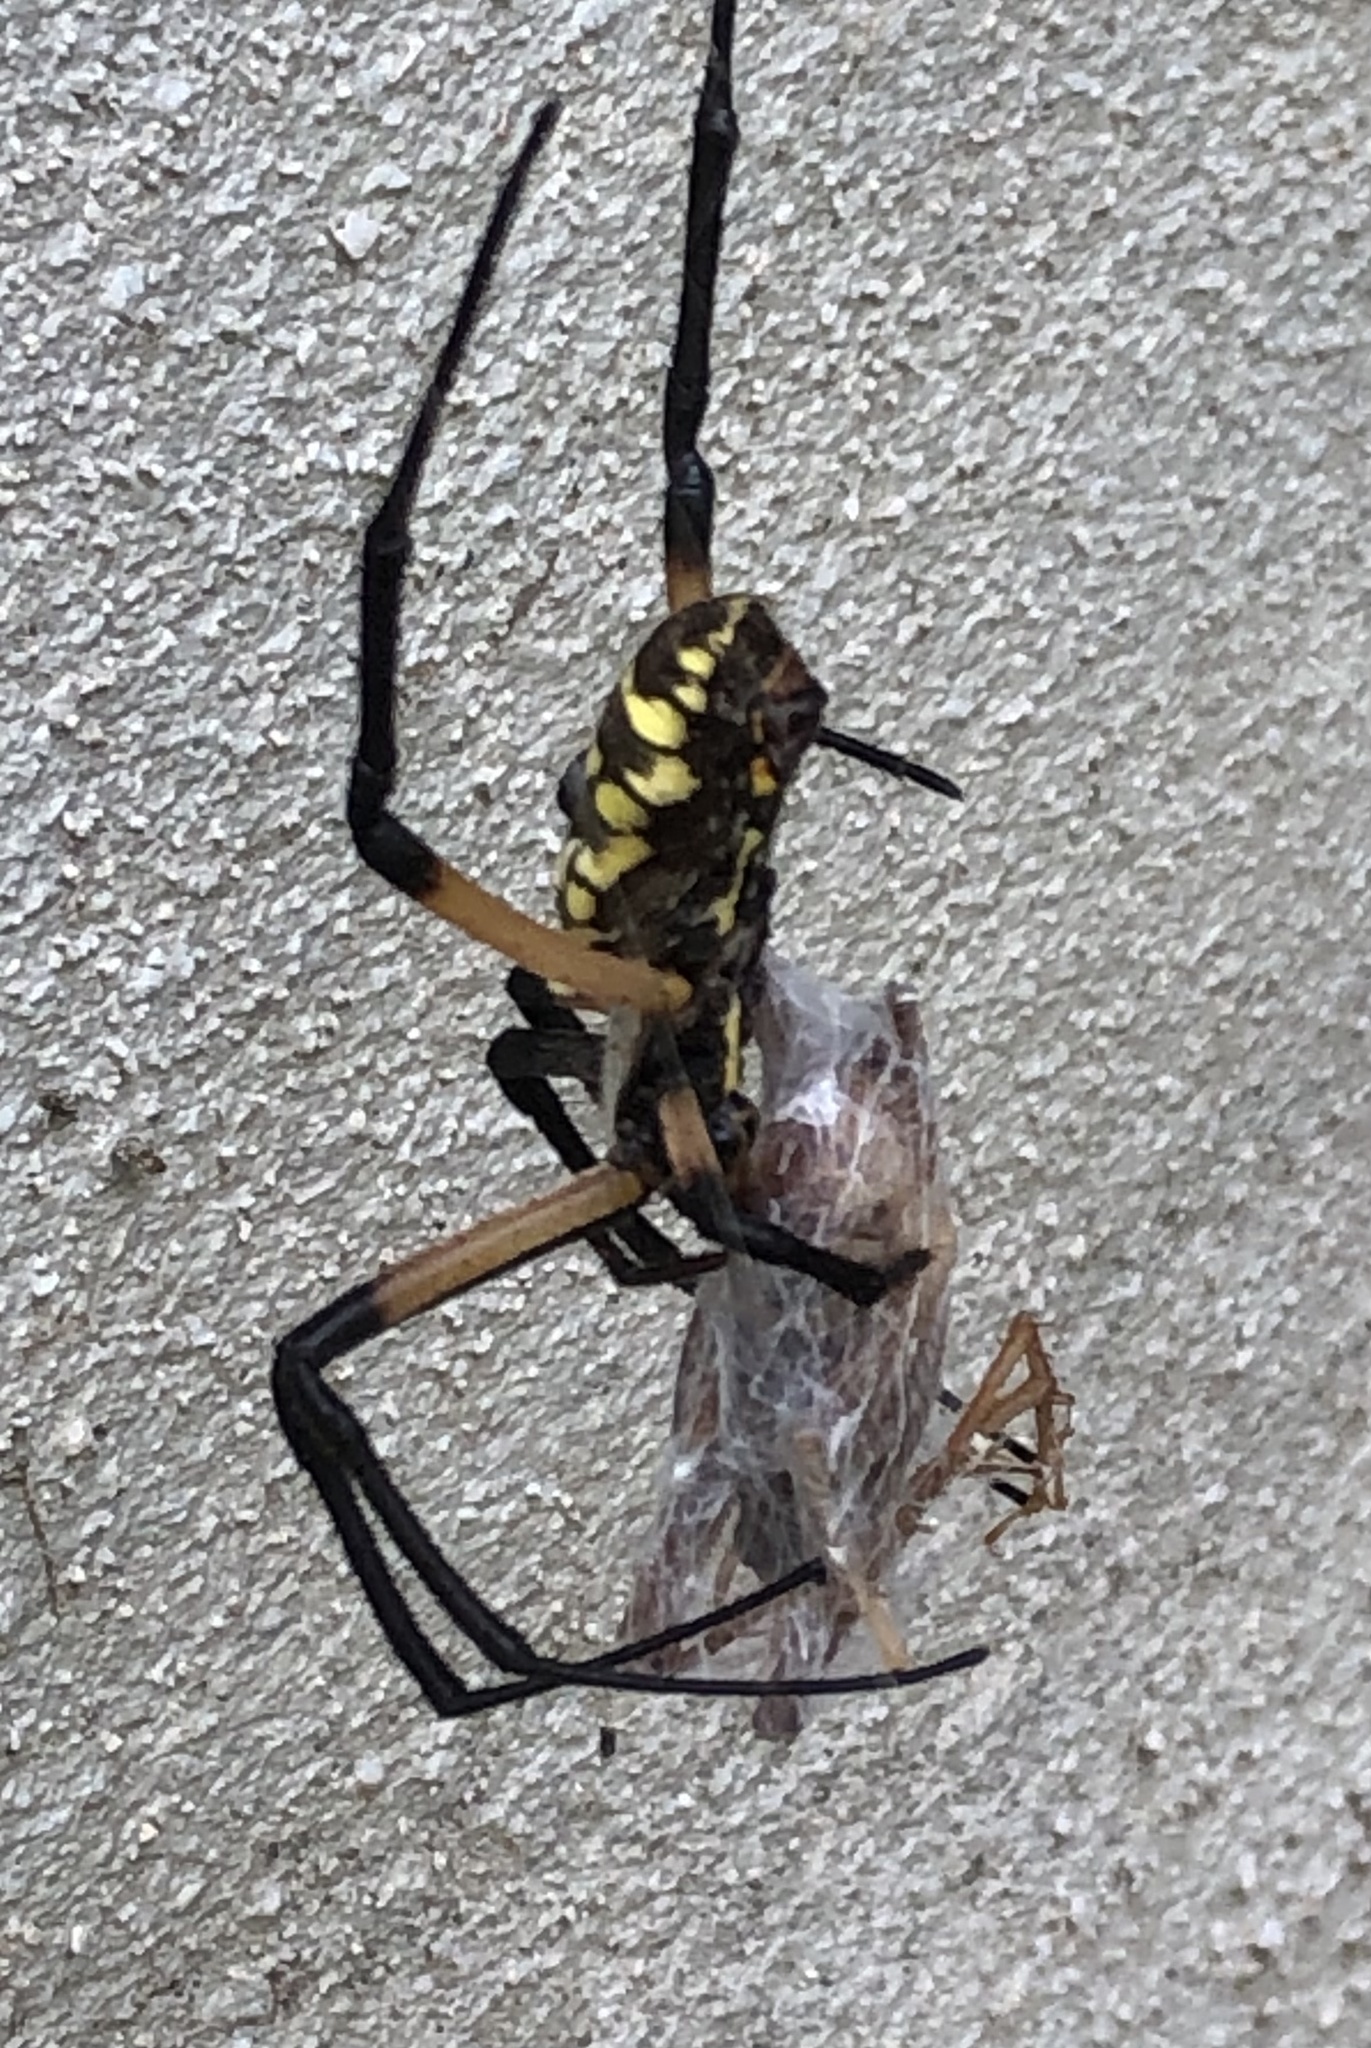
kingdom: Animalia
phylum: Arthropoda
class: Arachnida
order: Araneae
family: Araneidae
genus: Argiope
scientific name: Argiope aurantia
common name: Orb weavers
